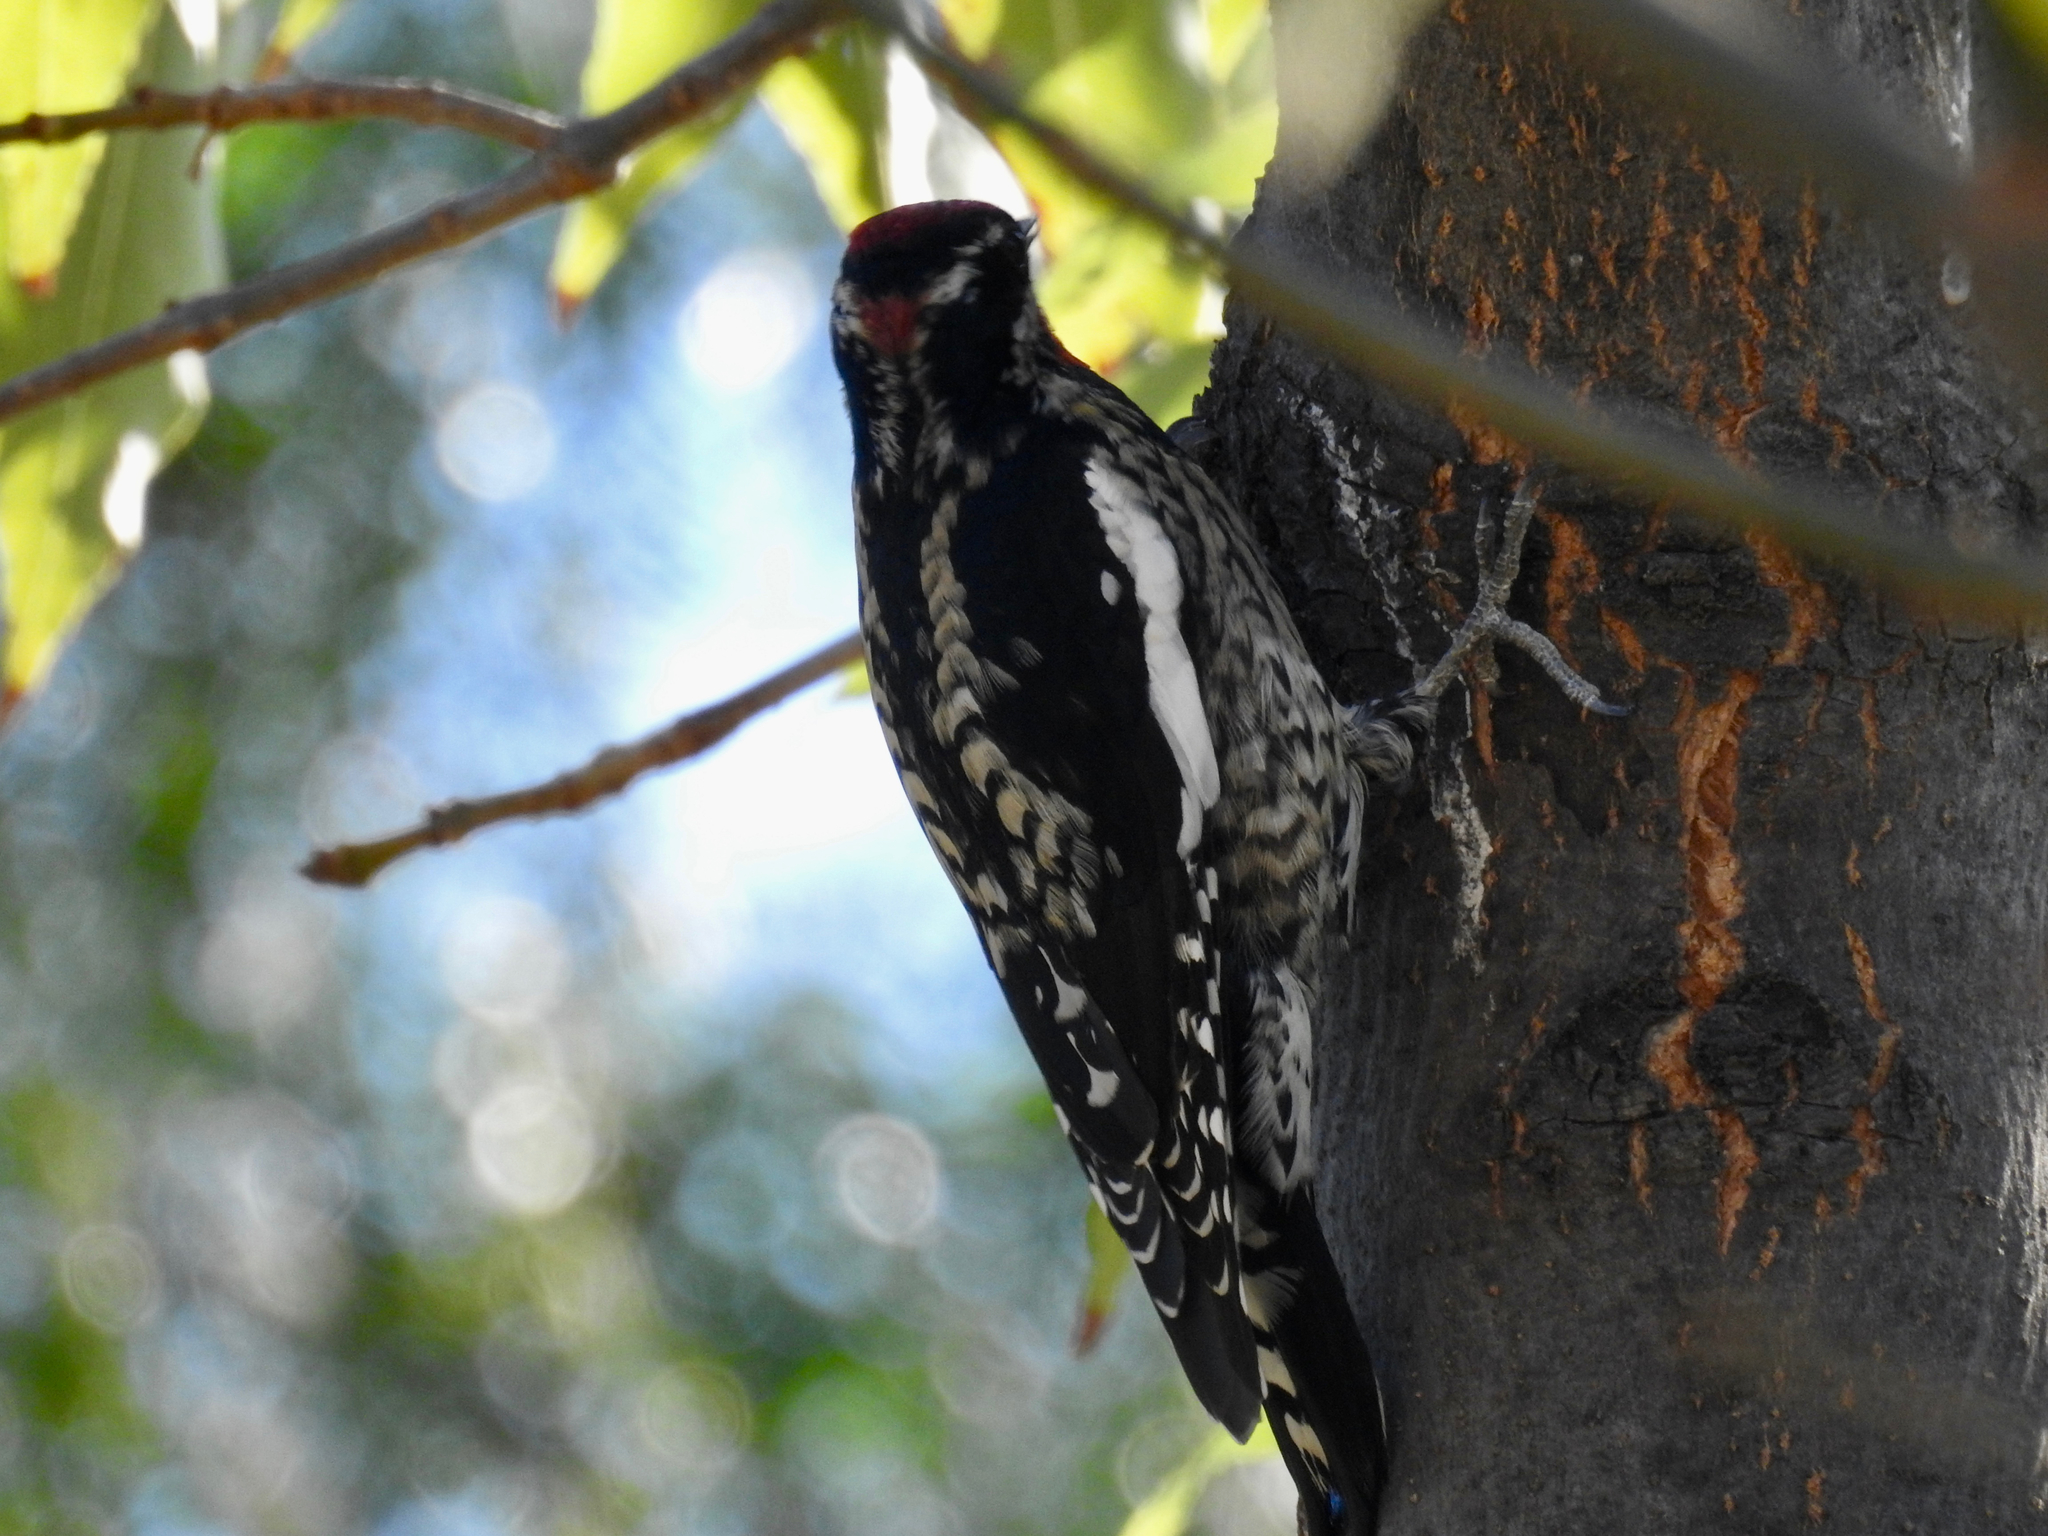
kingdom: Animalia
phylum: Chordata
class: Aves
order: Piciformes
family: Picidae
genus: Sphyrapicus
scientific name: Sphyrapicus nuchalis
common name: Red-naped sapsucker
